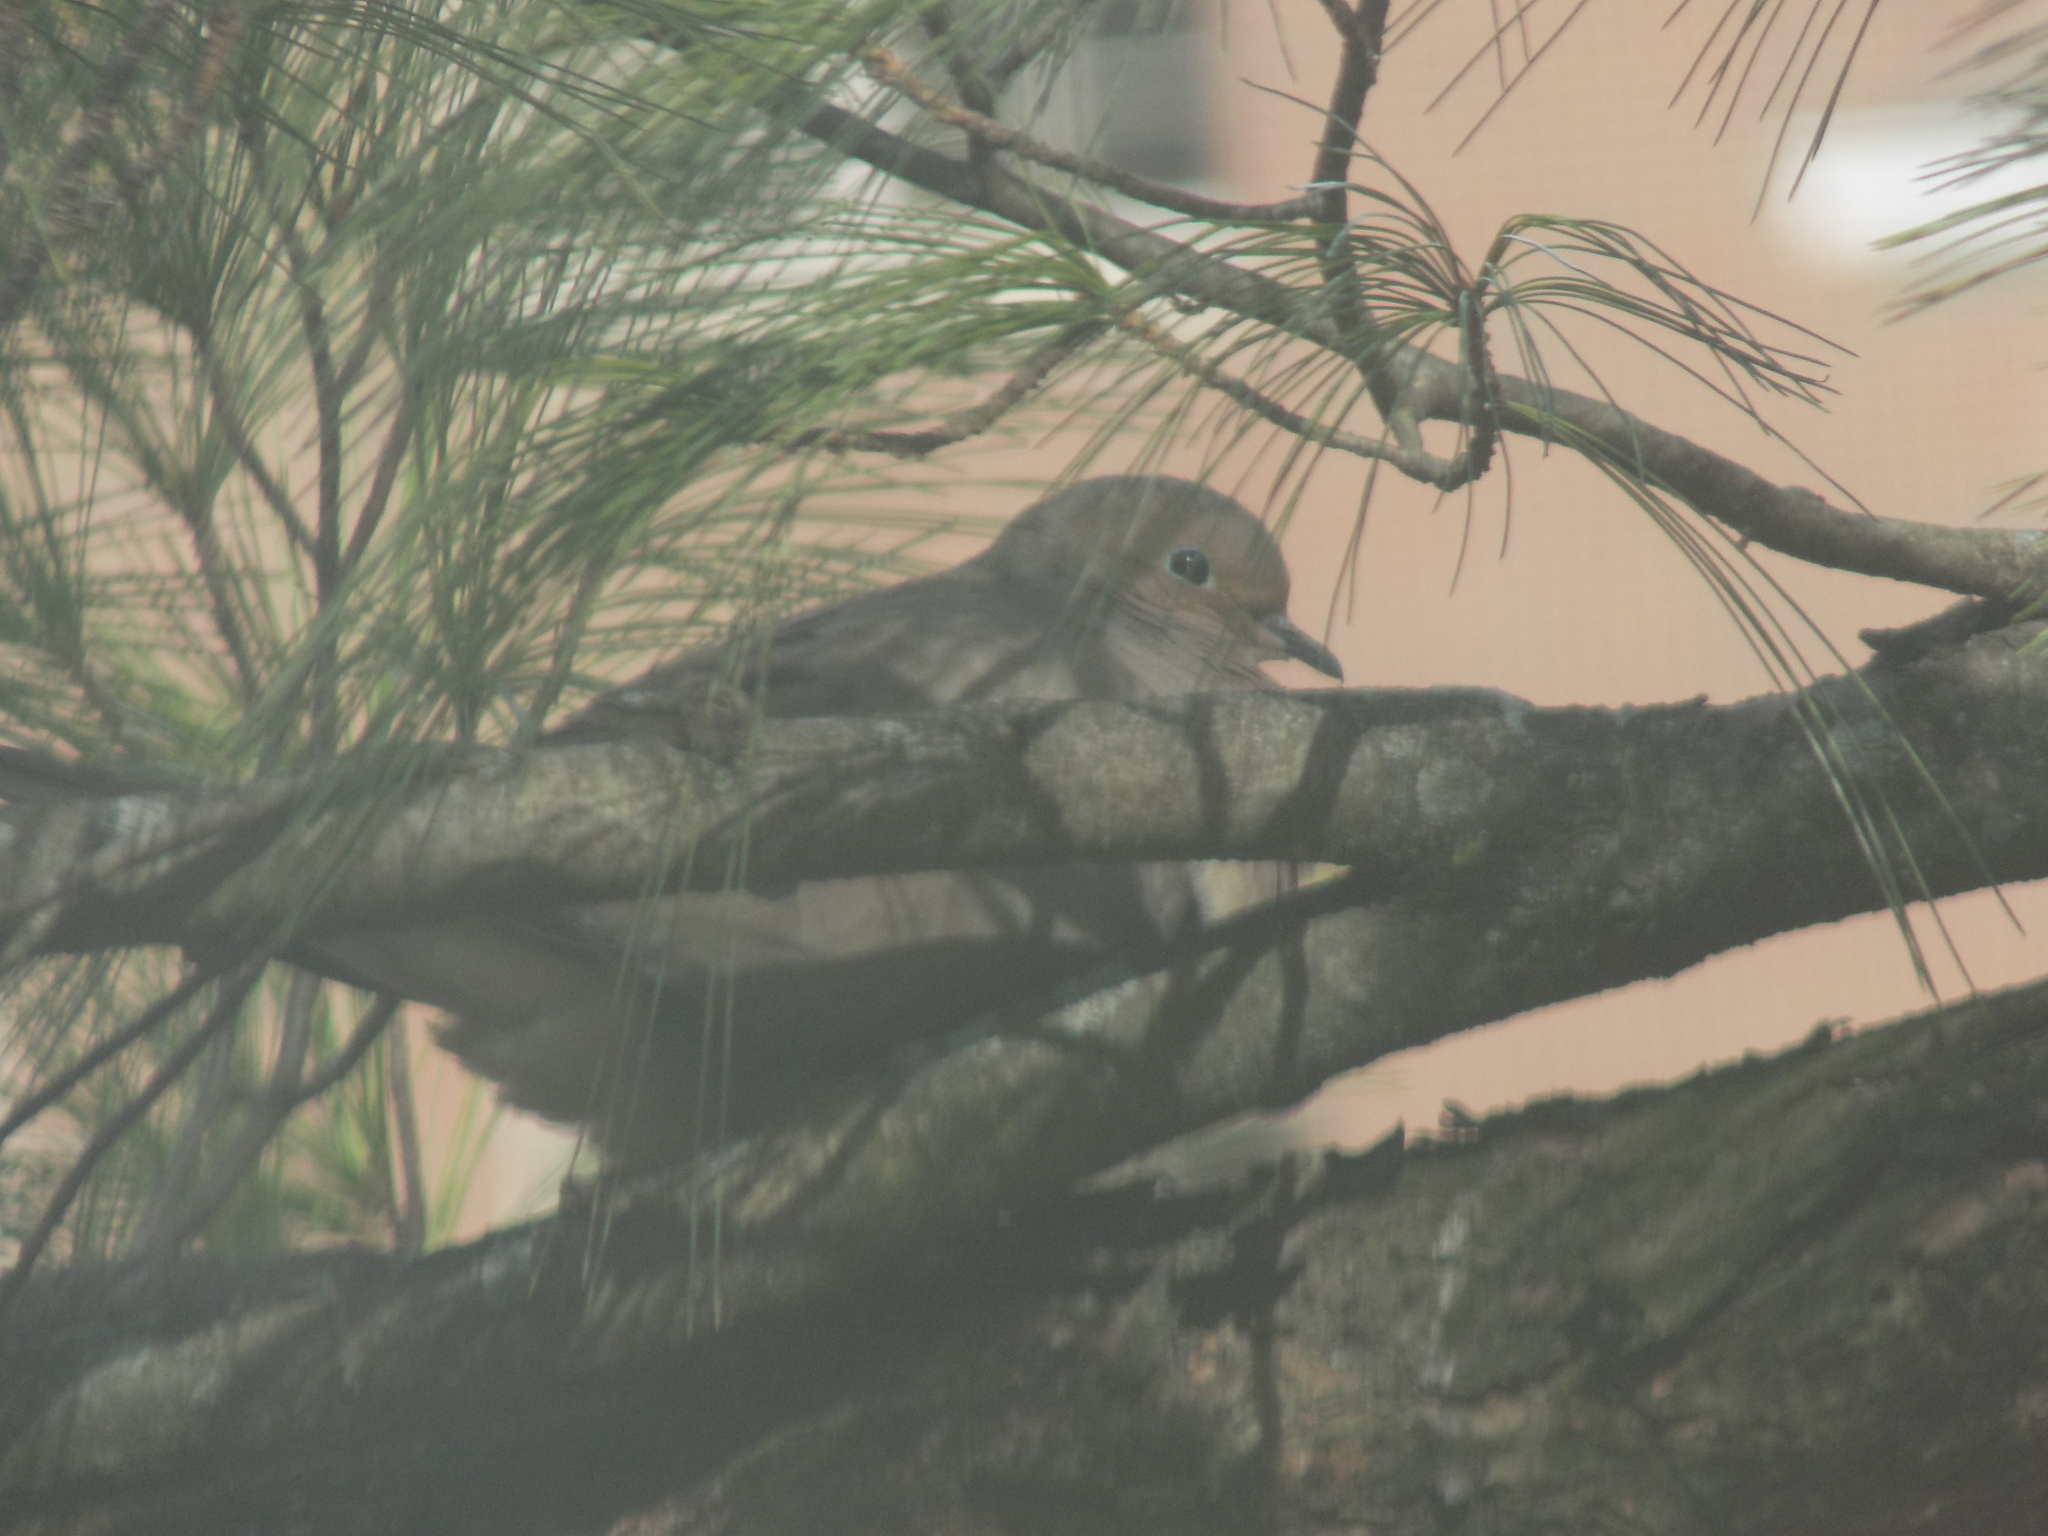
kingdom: Animalia
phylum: Chordata
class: Aves
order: Columbiformes
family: Columbidae
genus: Zenaida
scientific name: Zenaida macroura
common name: Mourning dove
